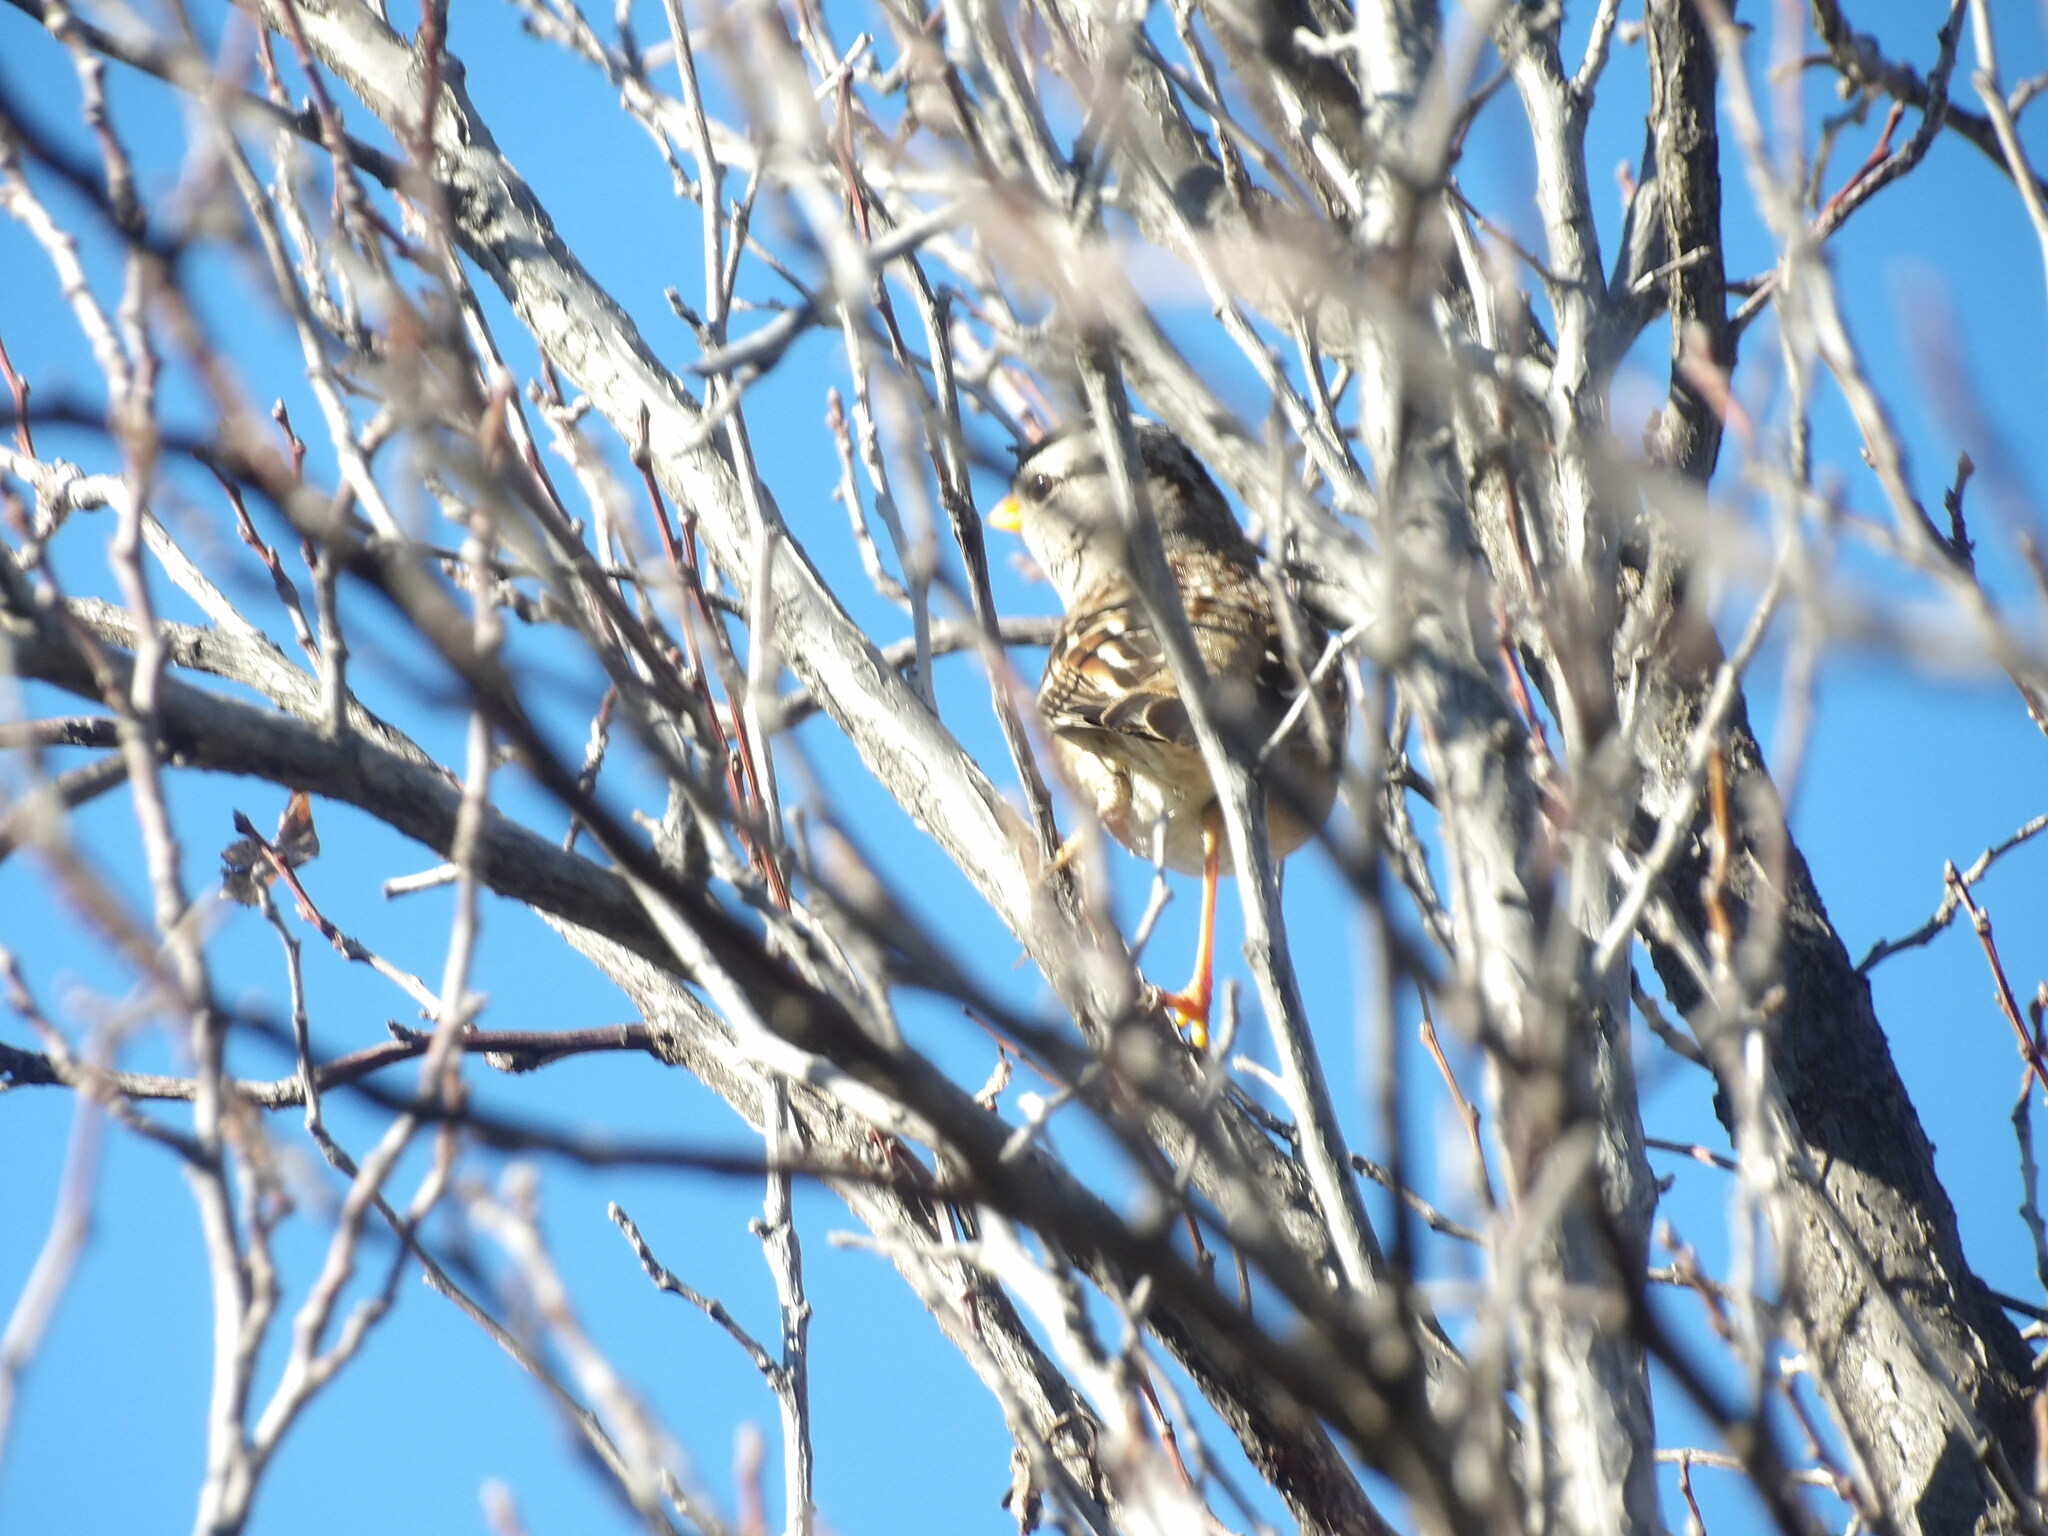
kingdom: Animalia
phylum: Chordata
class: Aves
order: Passeriformes
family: Passerellidae
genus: Zonotrichia
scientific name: Zonotrichia leucophrys
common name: White-crowned sparrow
